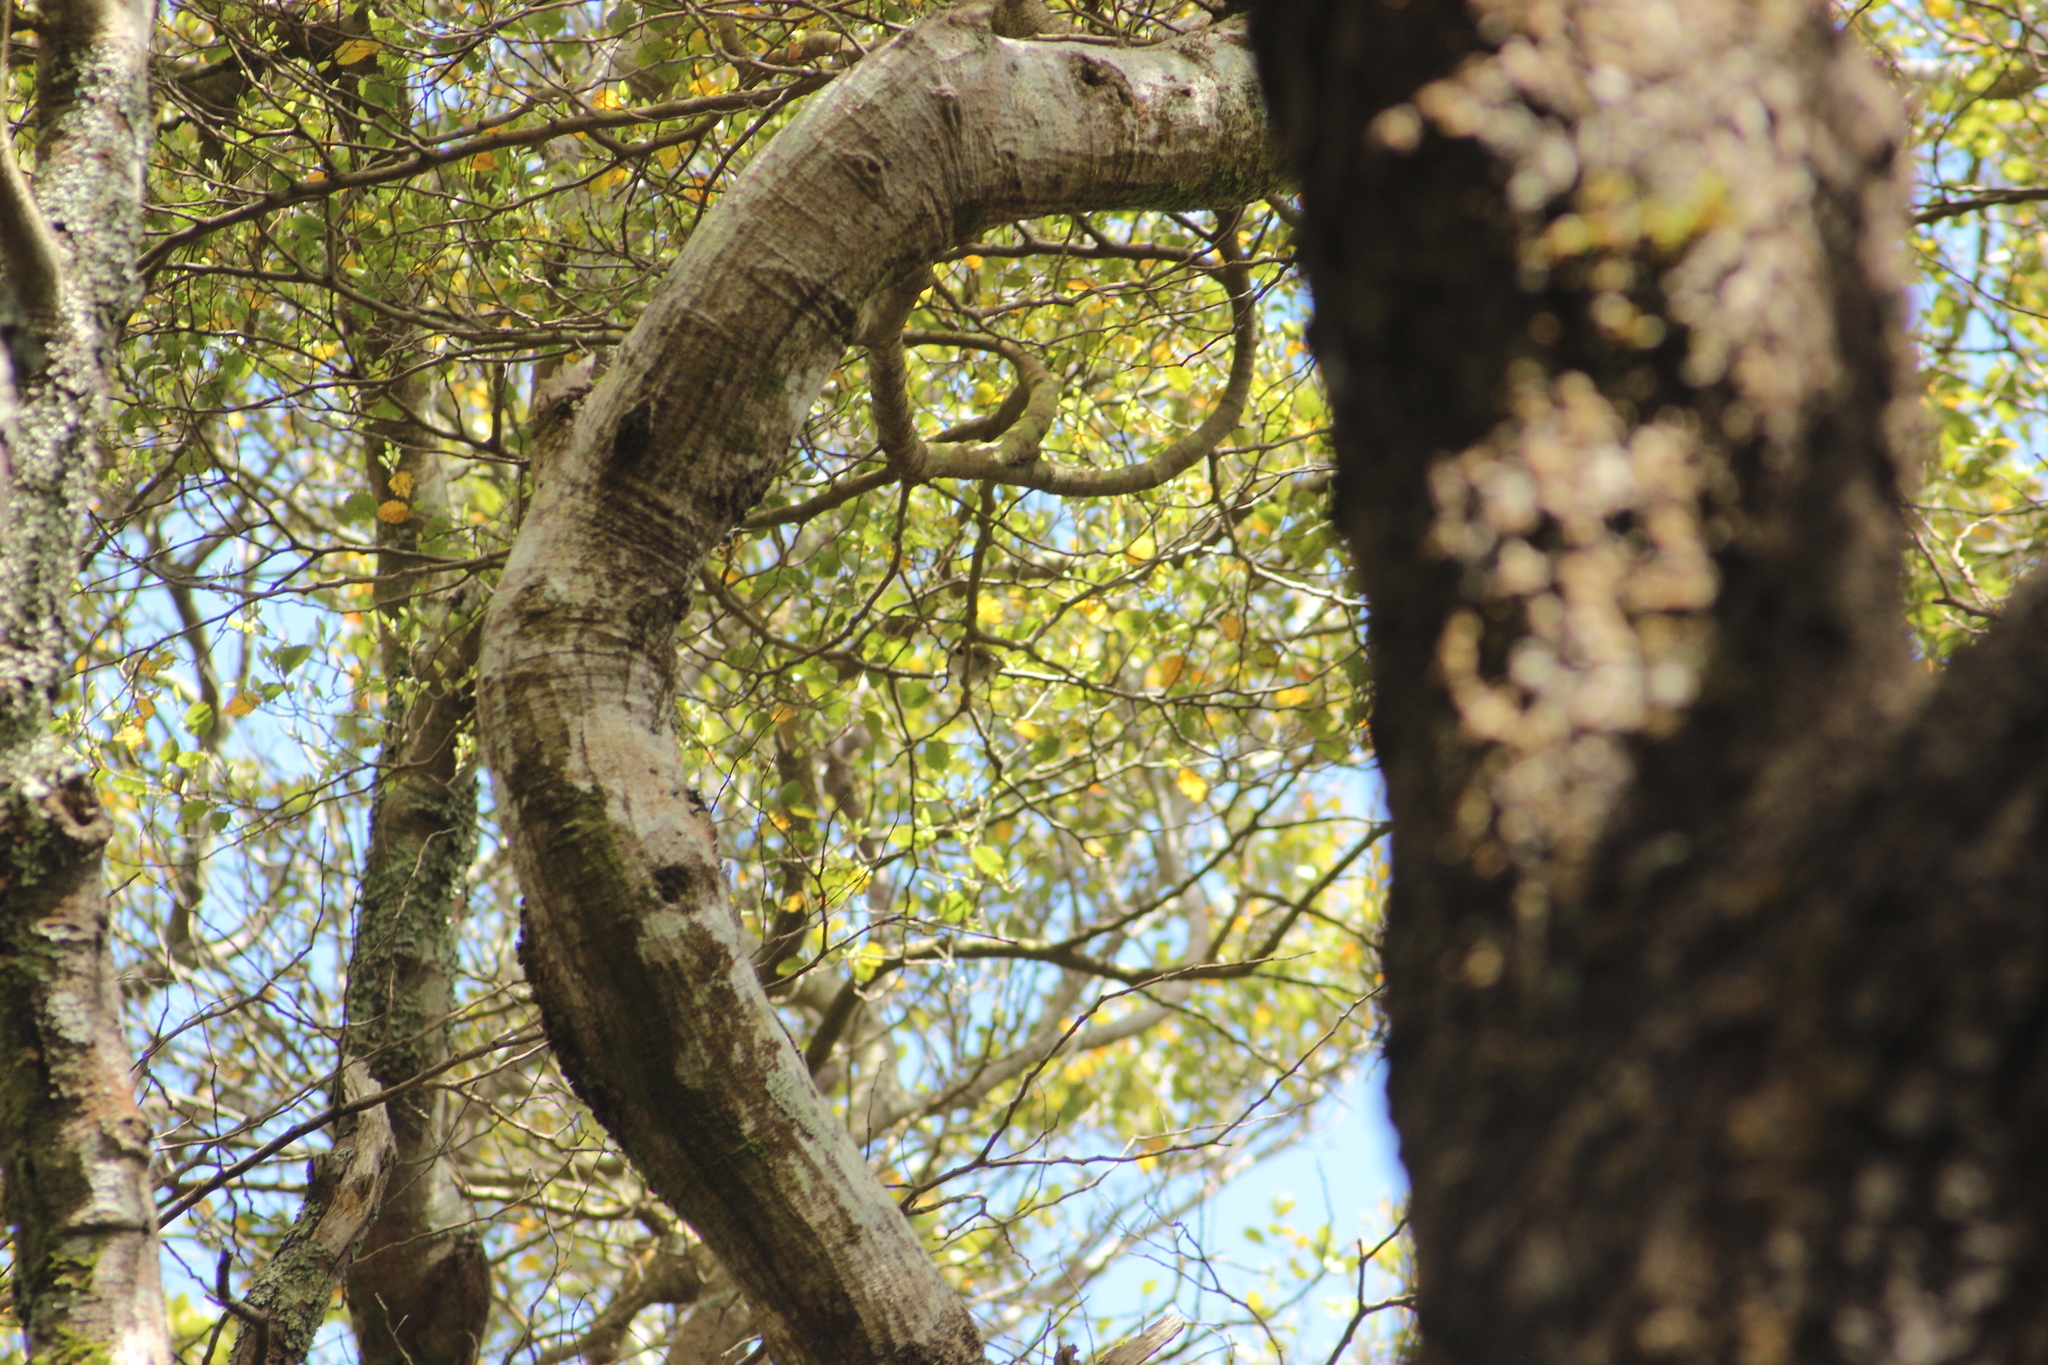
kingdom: Animalia
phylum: Chordata
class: Aves
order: Passeriformes
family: Acanthisittidae
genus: Acanthisitta
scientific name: Acanthisitta chloris
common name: Rifleman
